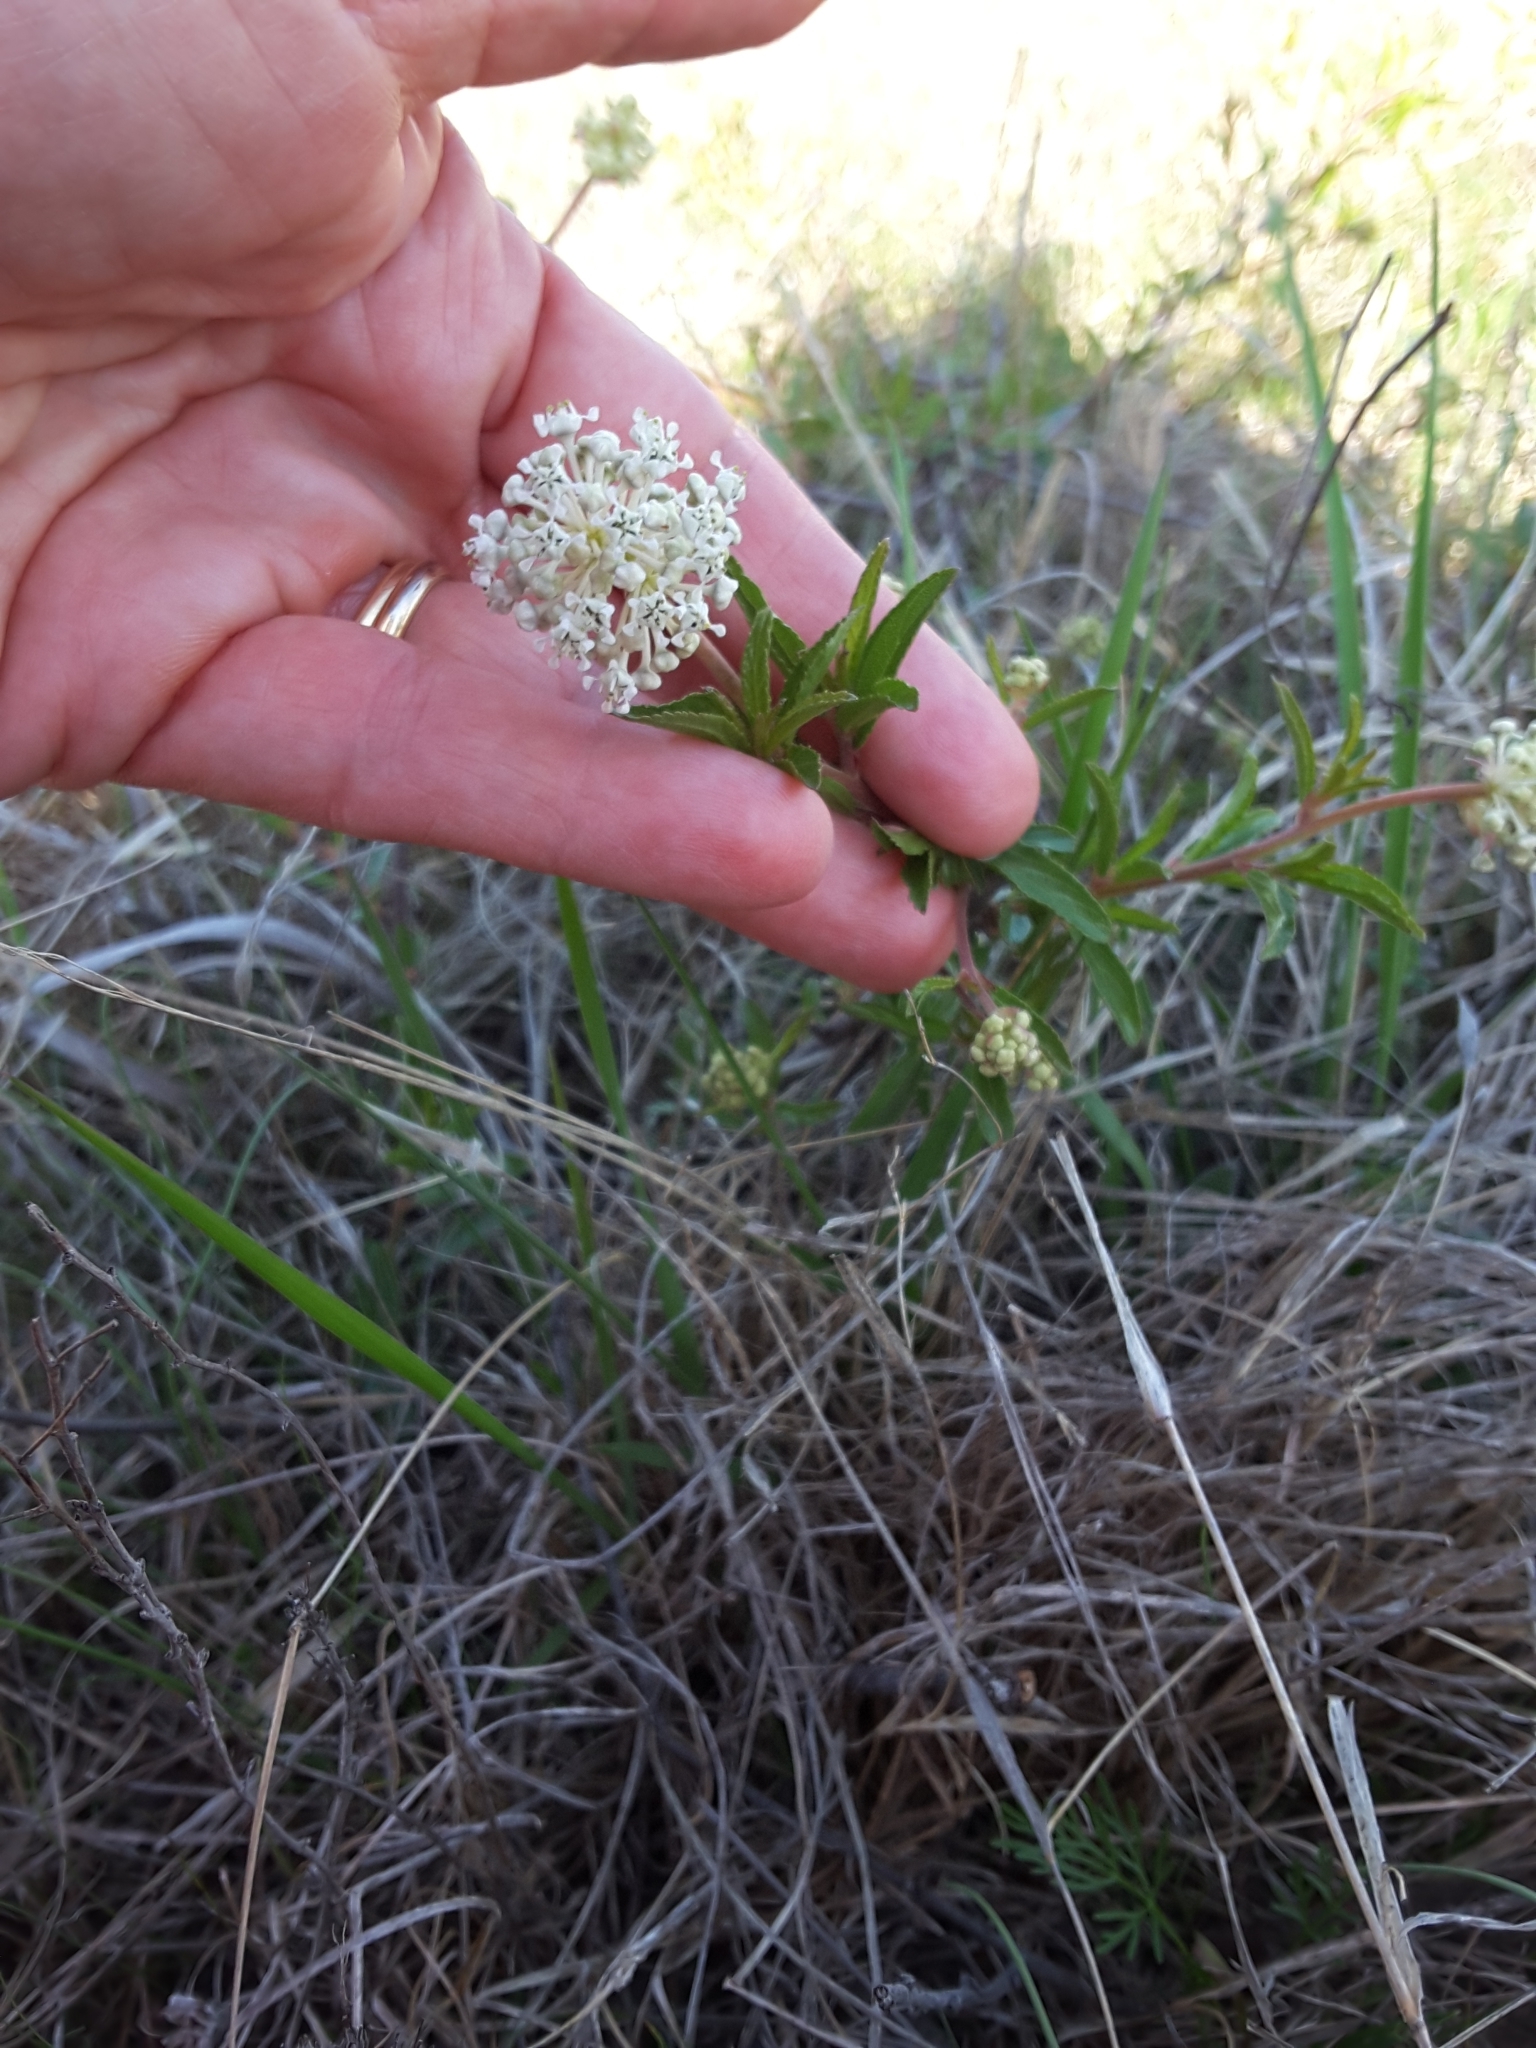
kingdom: Plantae
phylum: Tracheophyta
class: Magnoliopsida
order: Rosales
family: Rhamnaceae
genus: Ceanothus
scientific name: Ceanothus herbaceus
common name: Inland ceanothus
